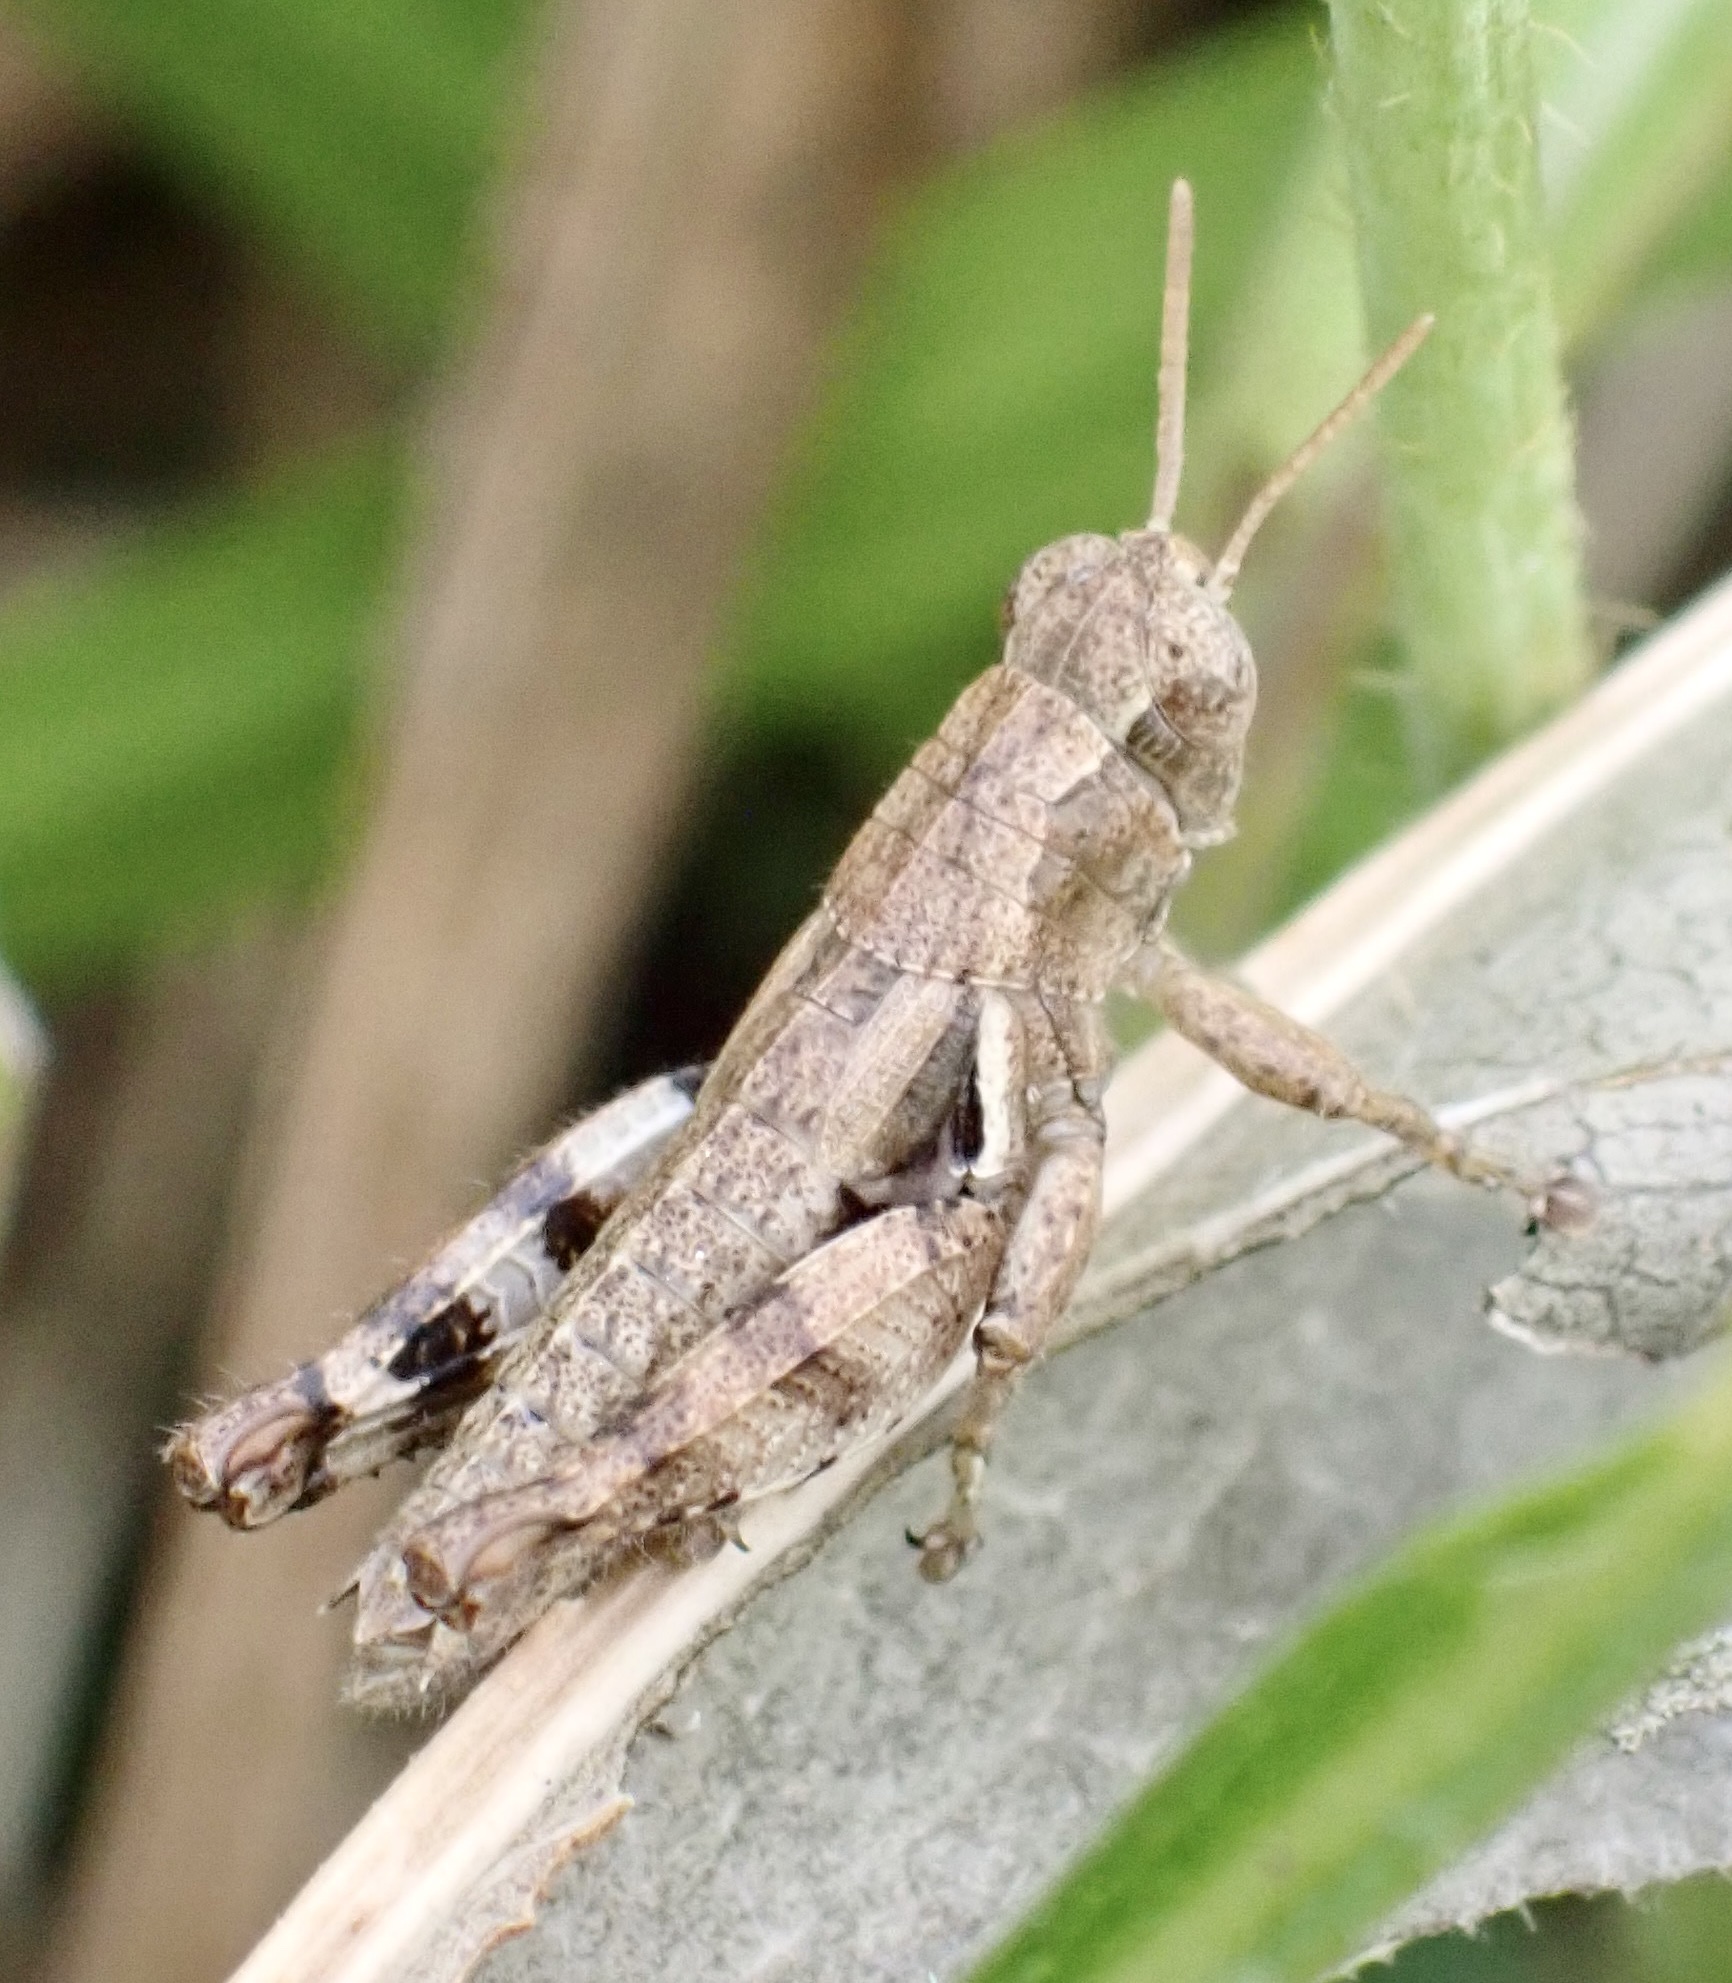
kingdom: Animalia
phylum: Arthropoda
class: Insecta
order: Orthoptera
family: Acrididae
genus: Pezotettix
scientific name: Pezotettix giornae
